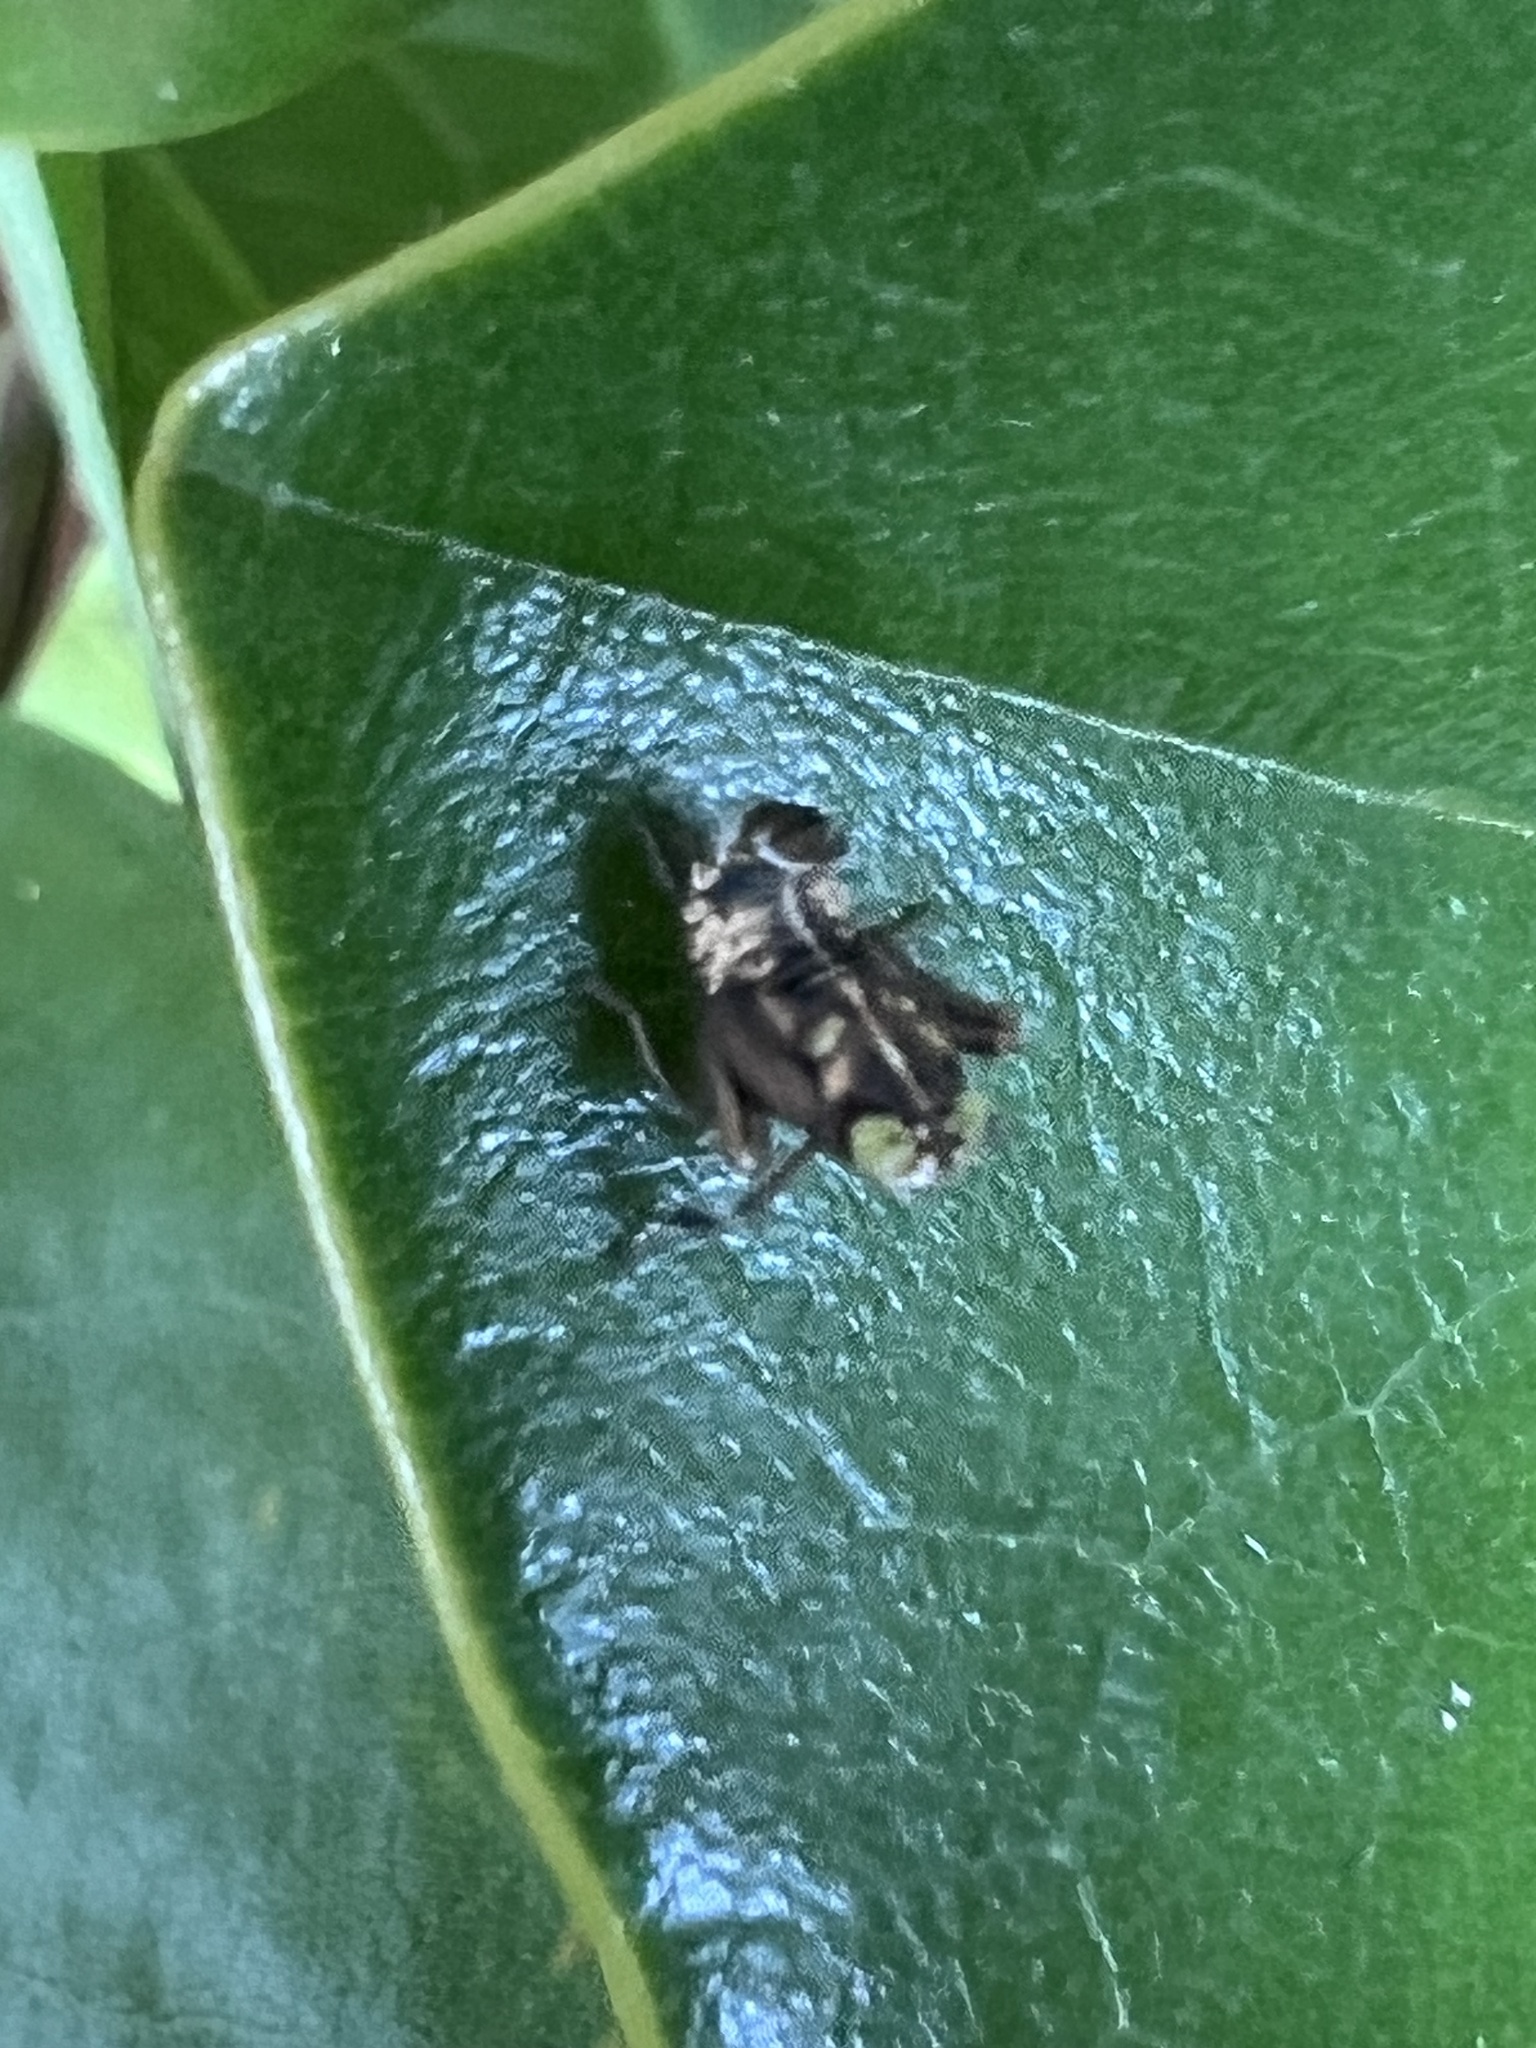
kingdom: Animalia
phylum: Arthropoda
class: Insecta
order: Hemiptera
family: Cicadellidae
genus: Jikradia
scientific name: Jikradia olitoria
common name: Coppery leafhopper
